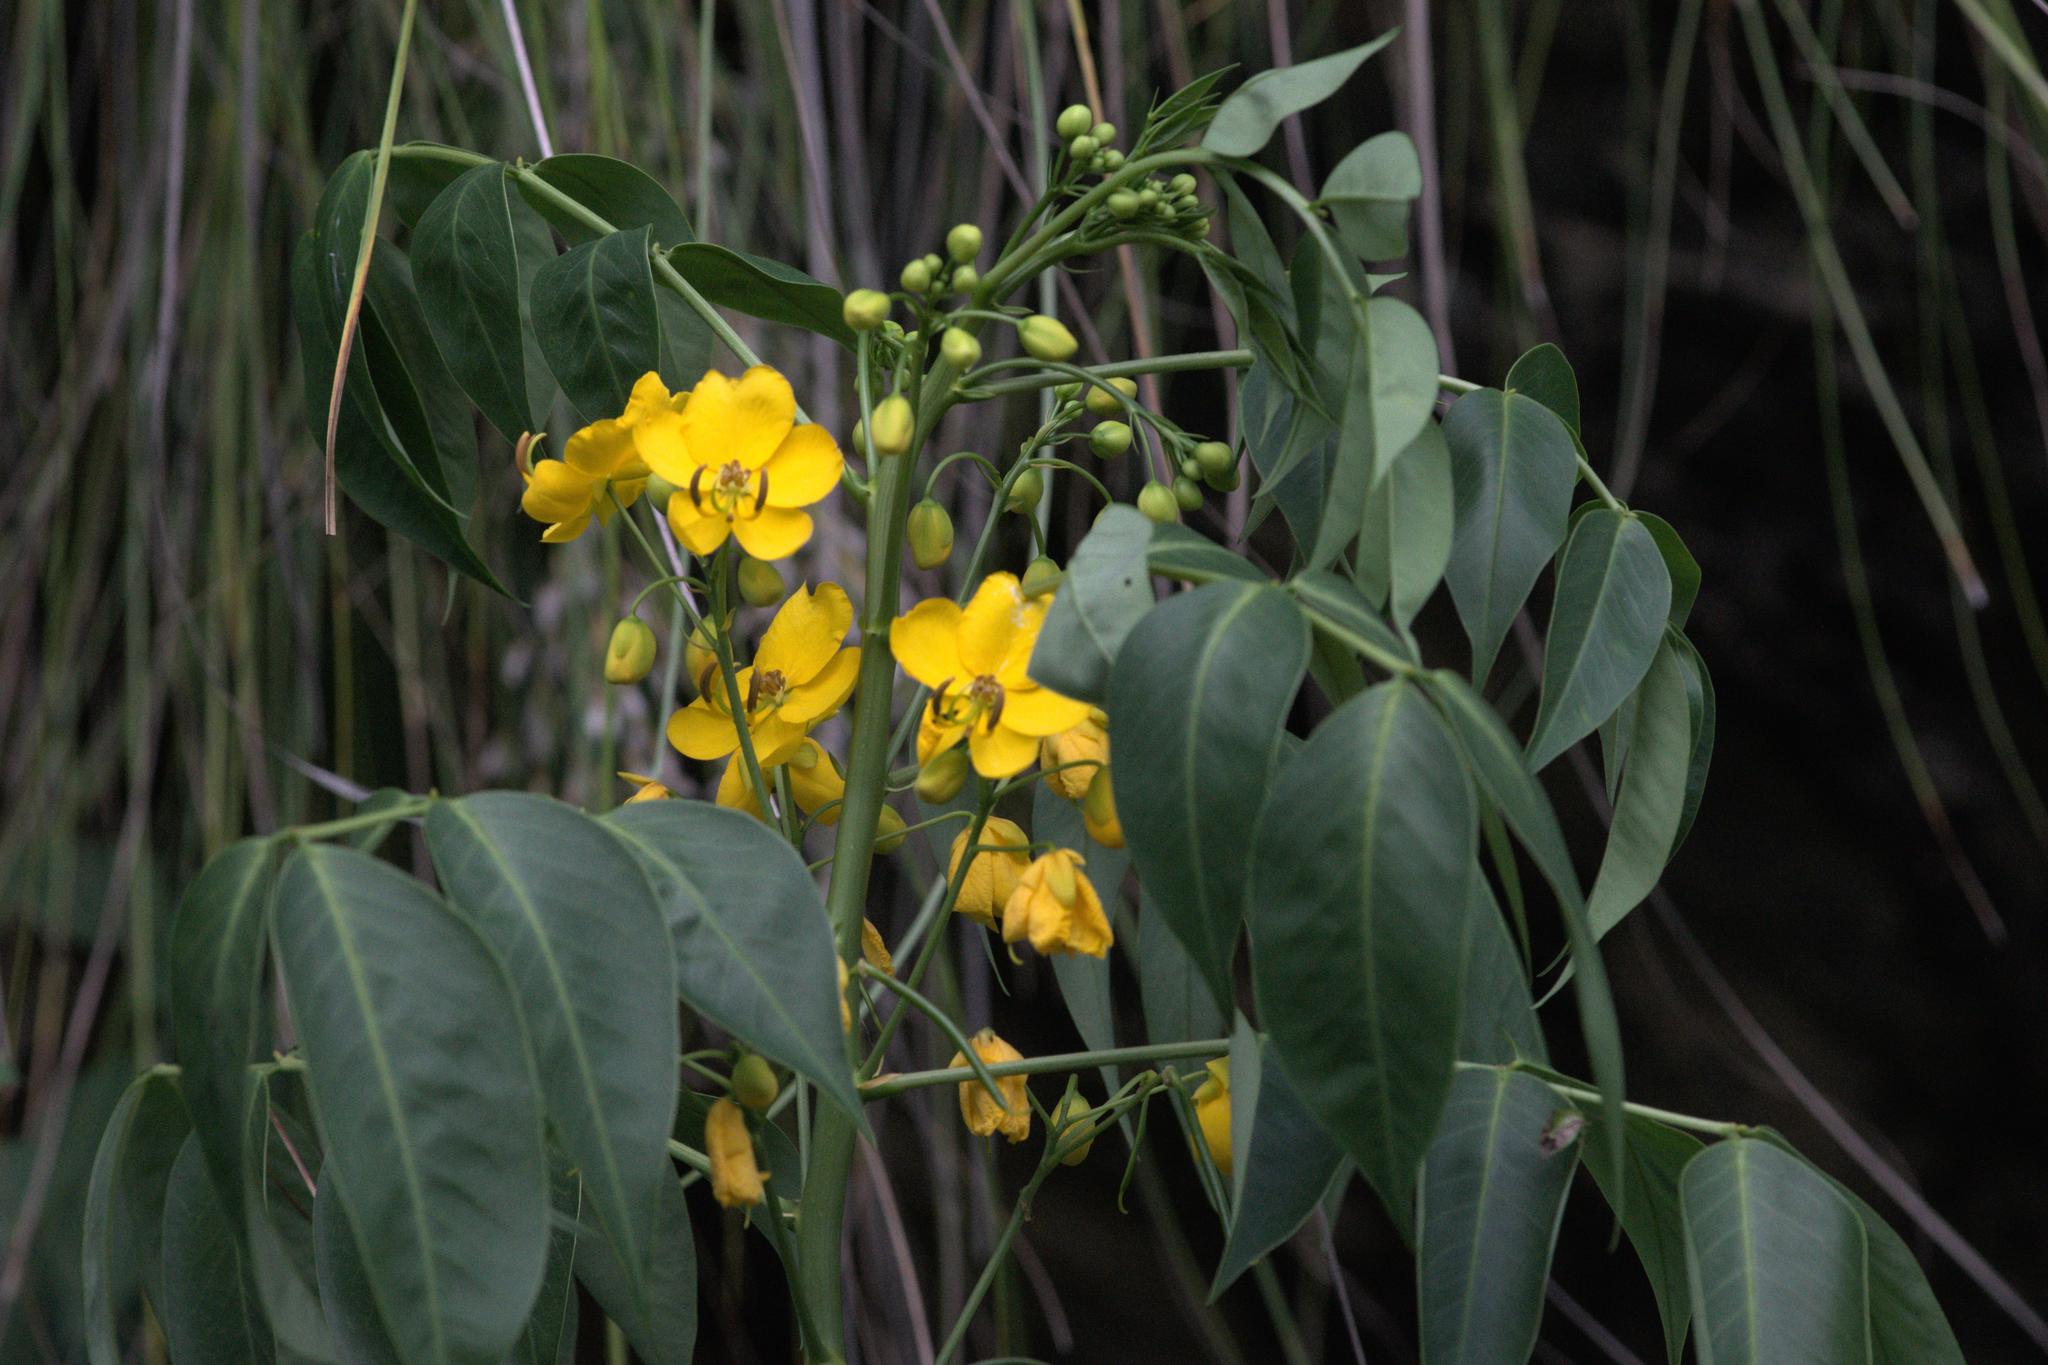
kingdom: Plantae
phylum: Tracheophyta
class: Magnoliopsida
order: Fabales
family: Fabaceae
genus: Senna
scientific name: Senna septemtrionalis
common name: Arsenic bush
